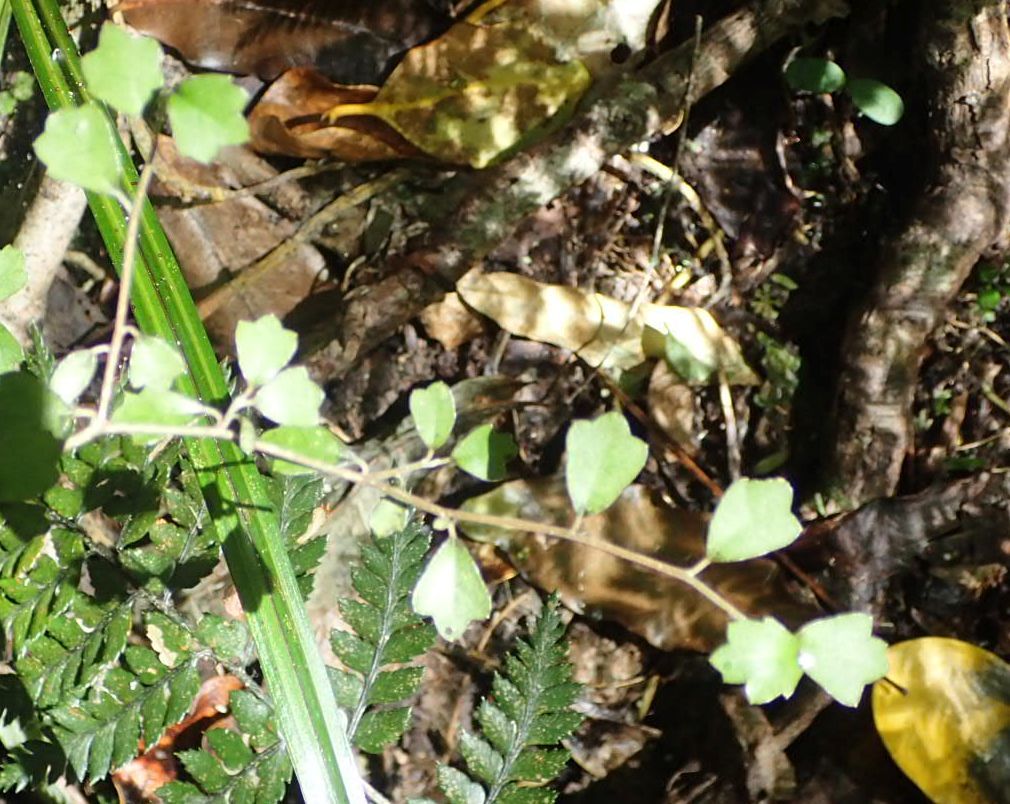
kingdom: Plantae
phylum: Tracheophyta
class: Magnoliopsida
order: Apiales
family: Pennantiaceae
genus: Pennantia
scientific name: Pennantia corymbosa
